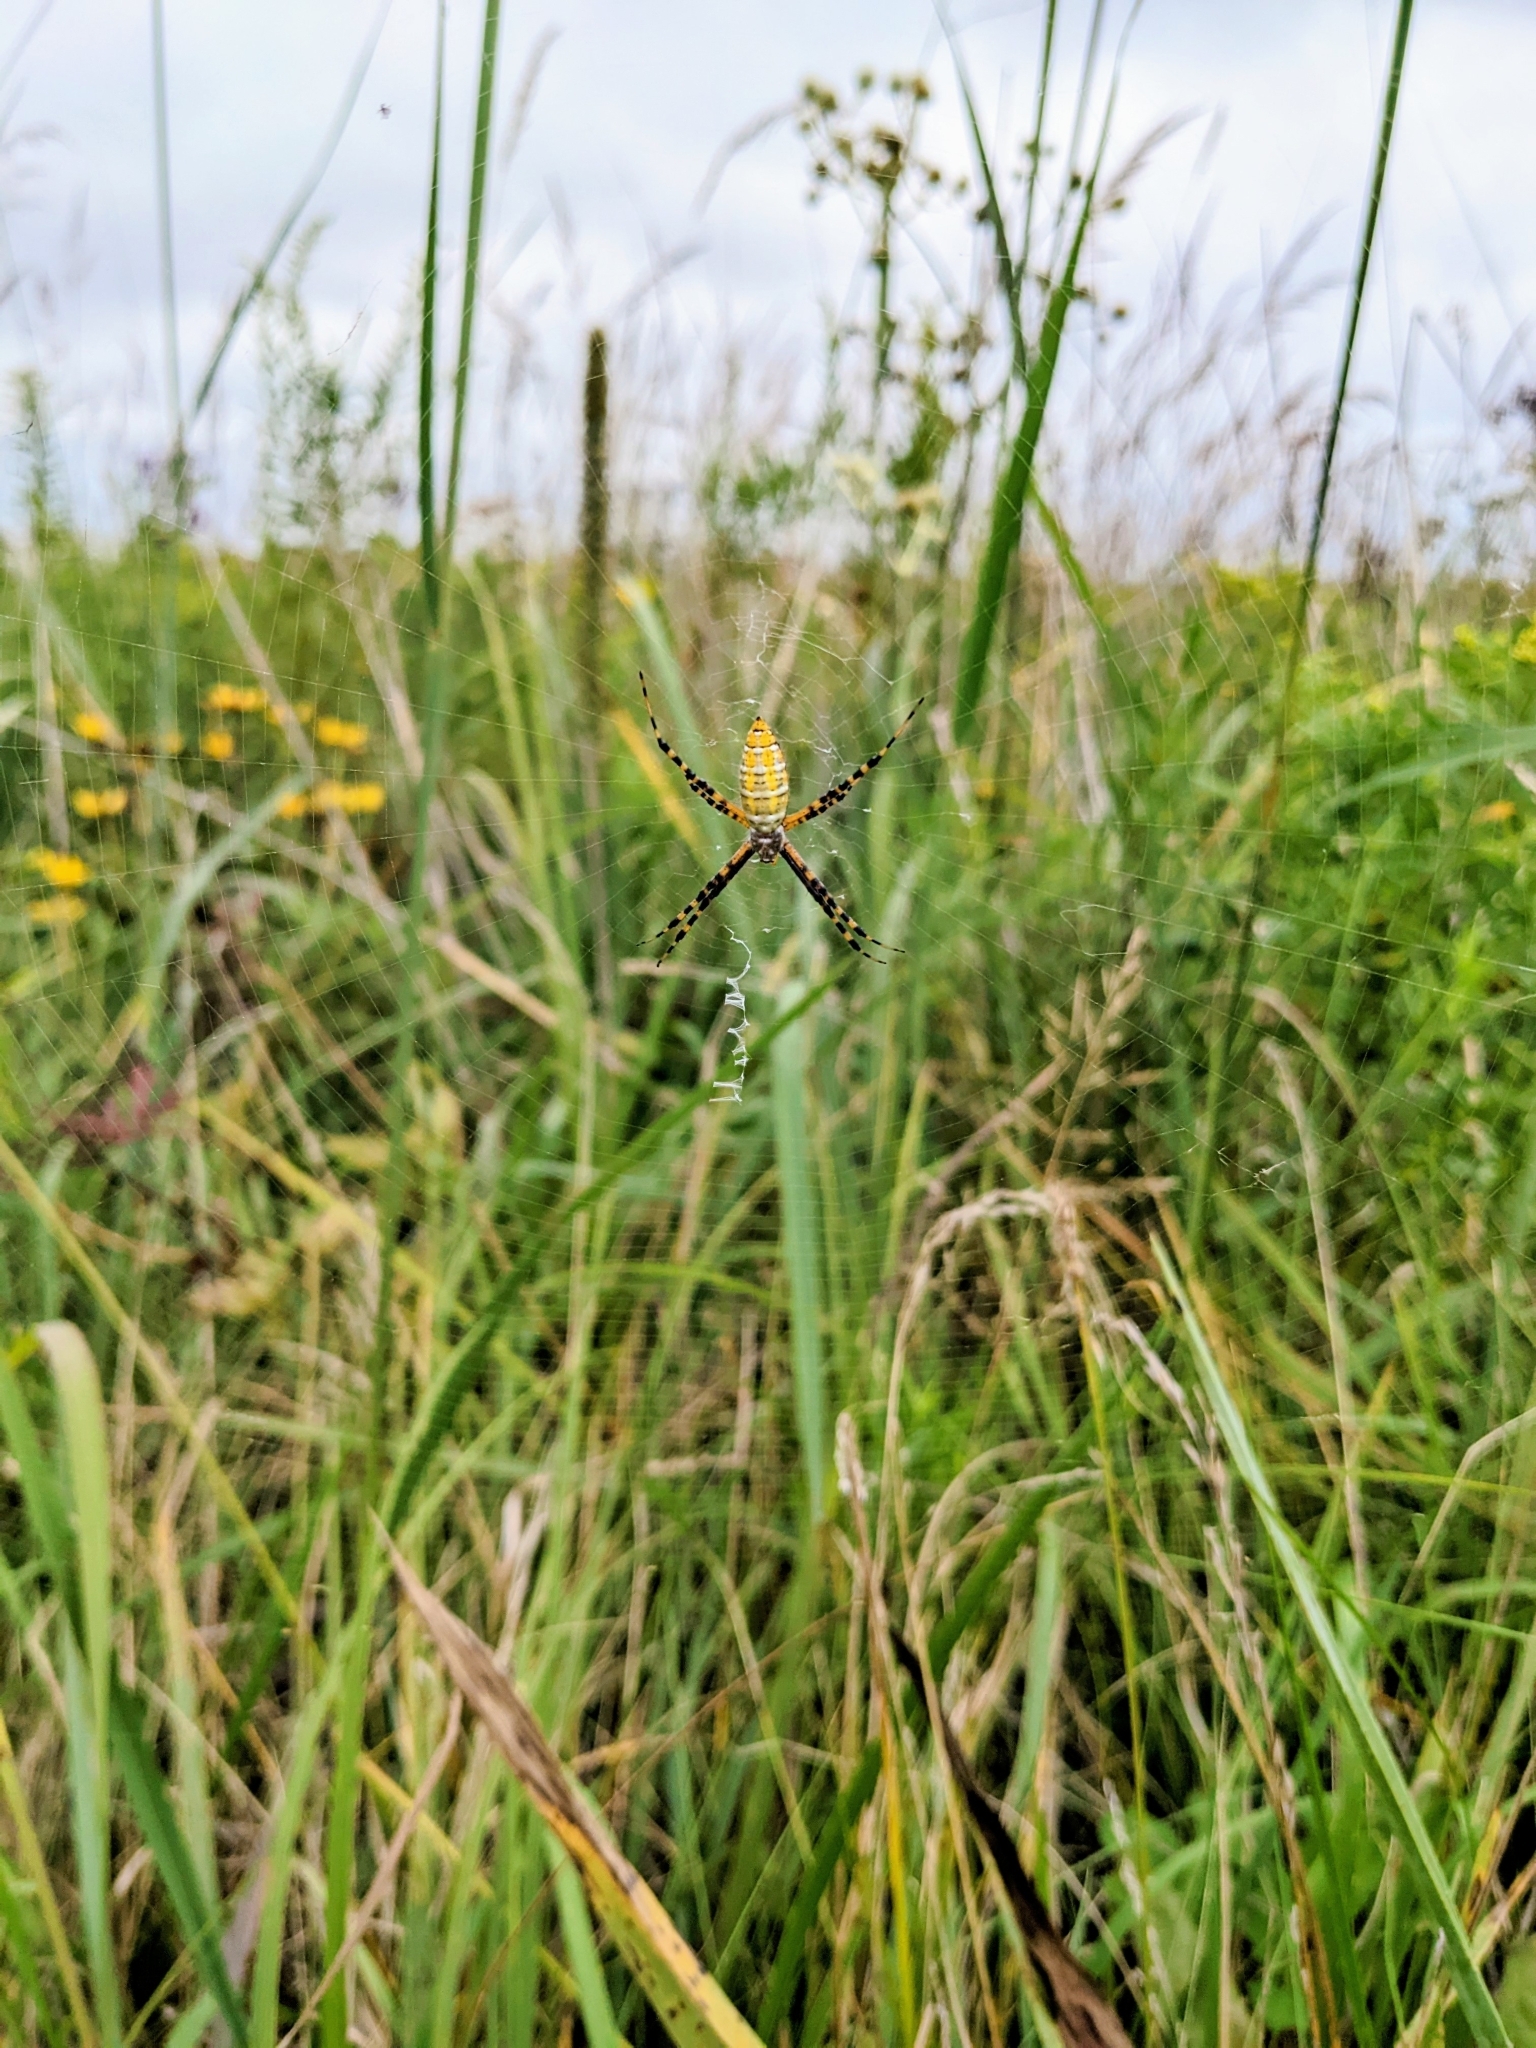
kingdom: Animalia
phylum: Arthropoda
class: Arachnida
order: Araneae
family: Araneidae
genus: Argiope
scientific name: Argiope trifasciata
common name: Banded garden spider
